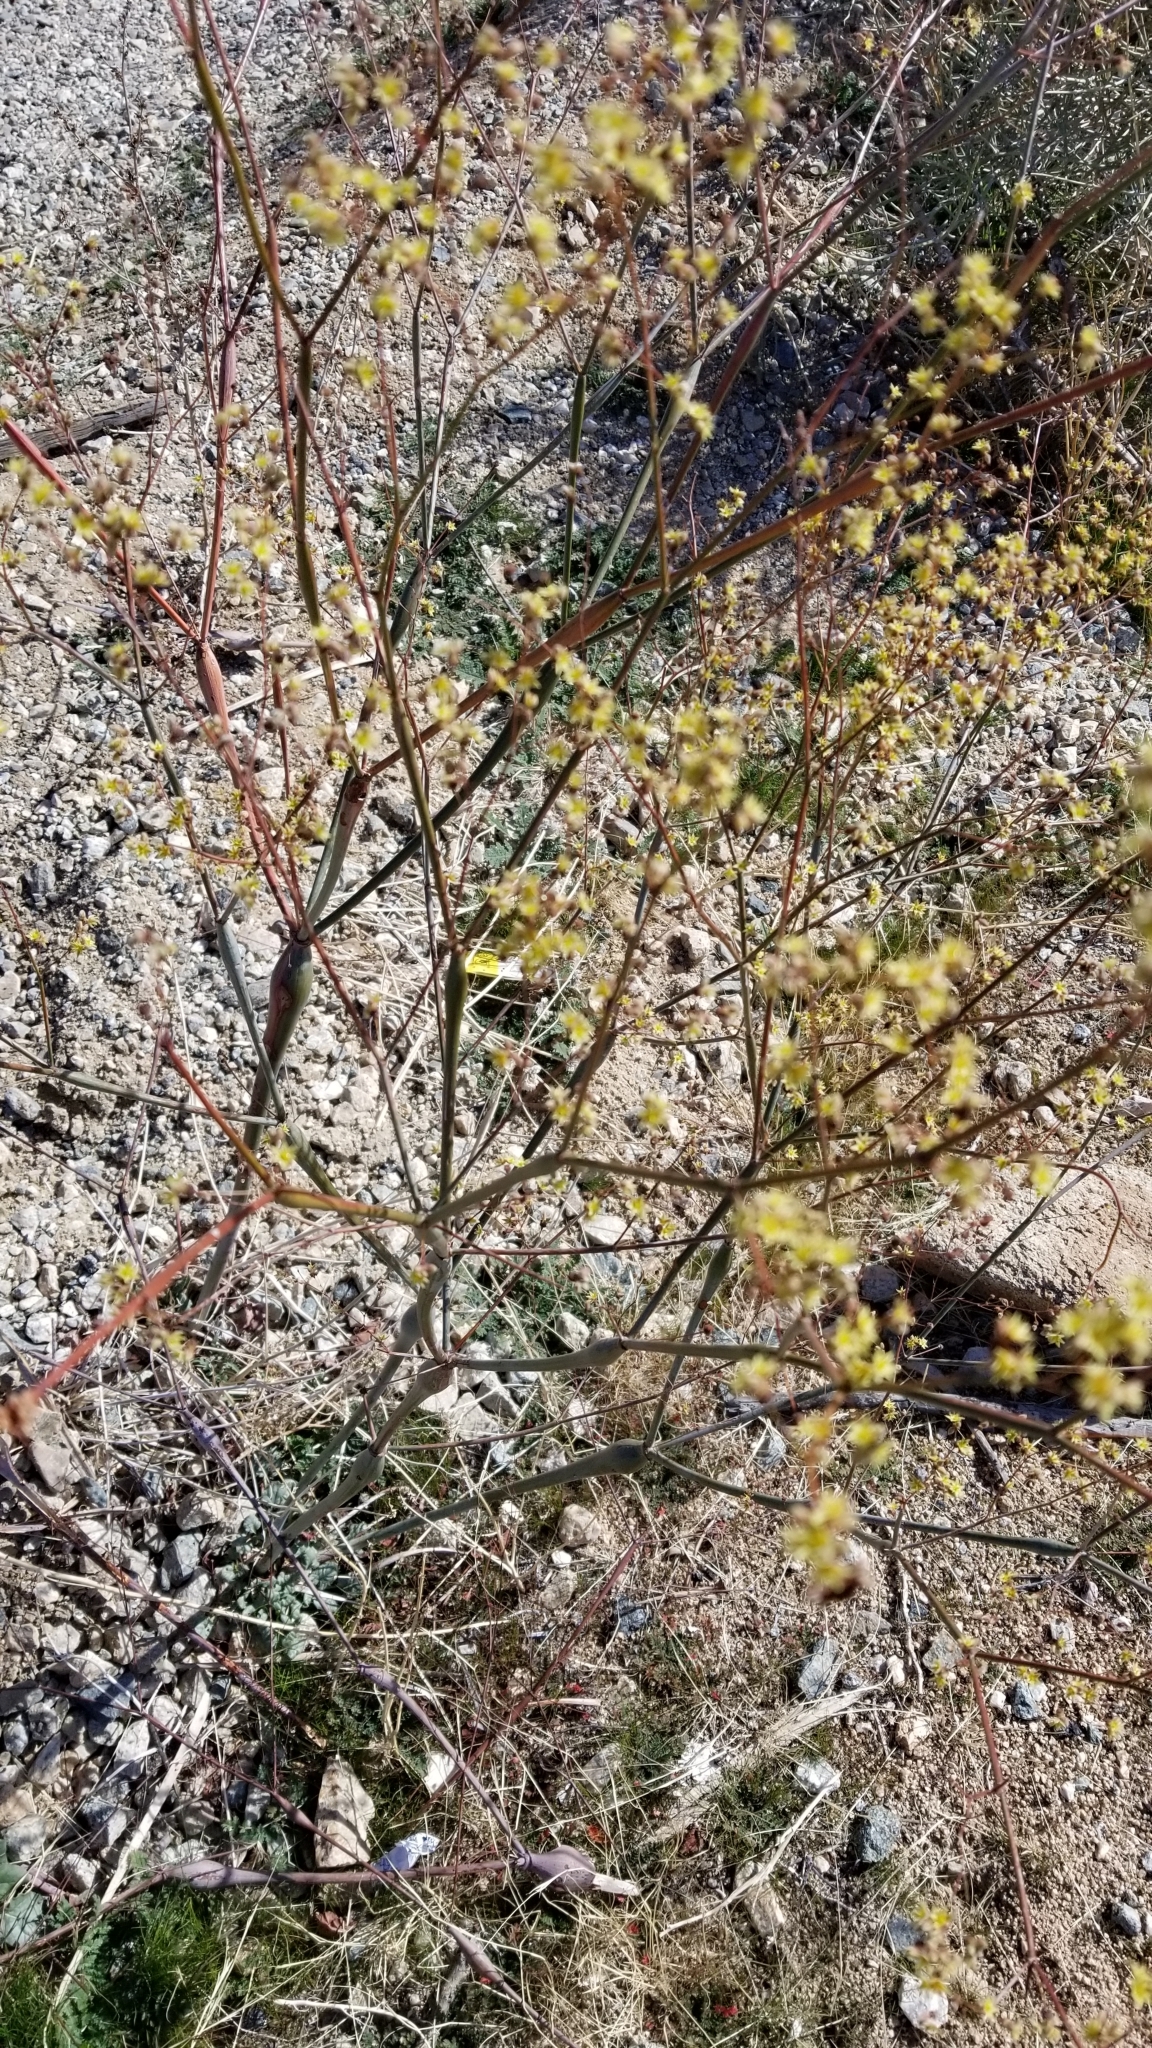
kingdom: Plantae
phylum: Tracheophyta
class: Magnoliopsida
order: Caryophyllales
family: Polygonaceae
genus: Eriogonum
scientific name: Eriogonum inflatum
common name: Desert trumpet
